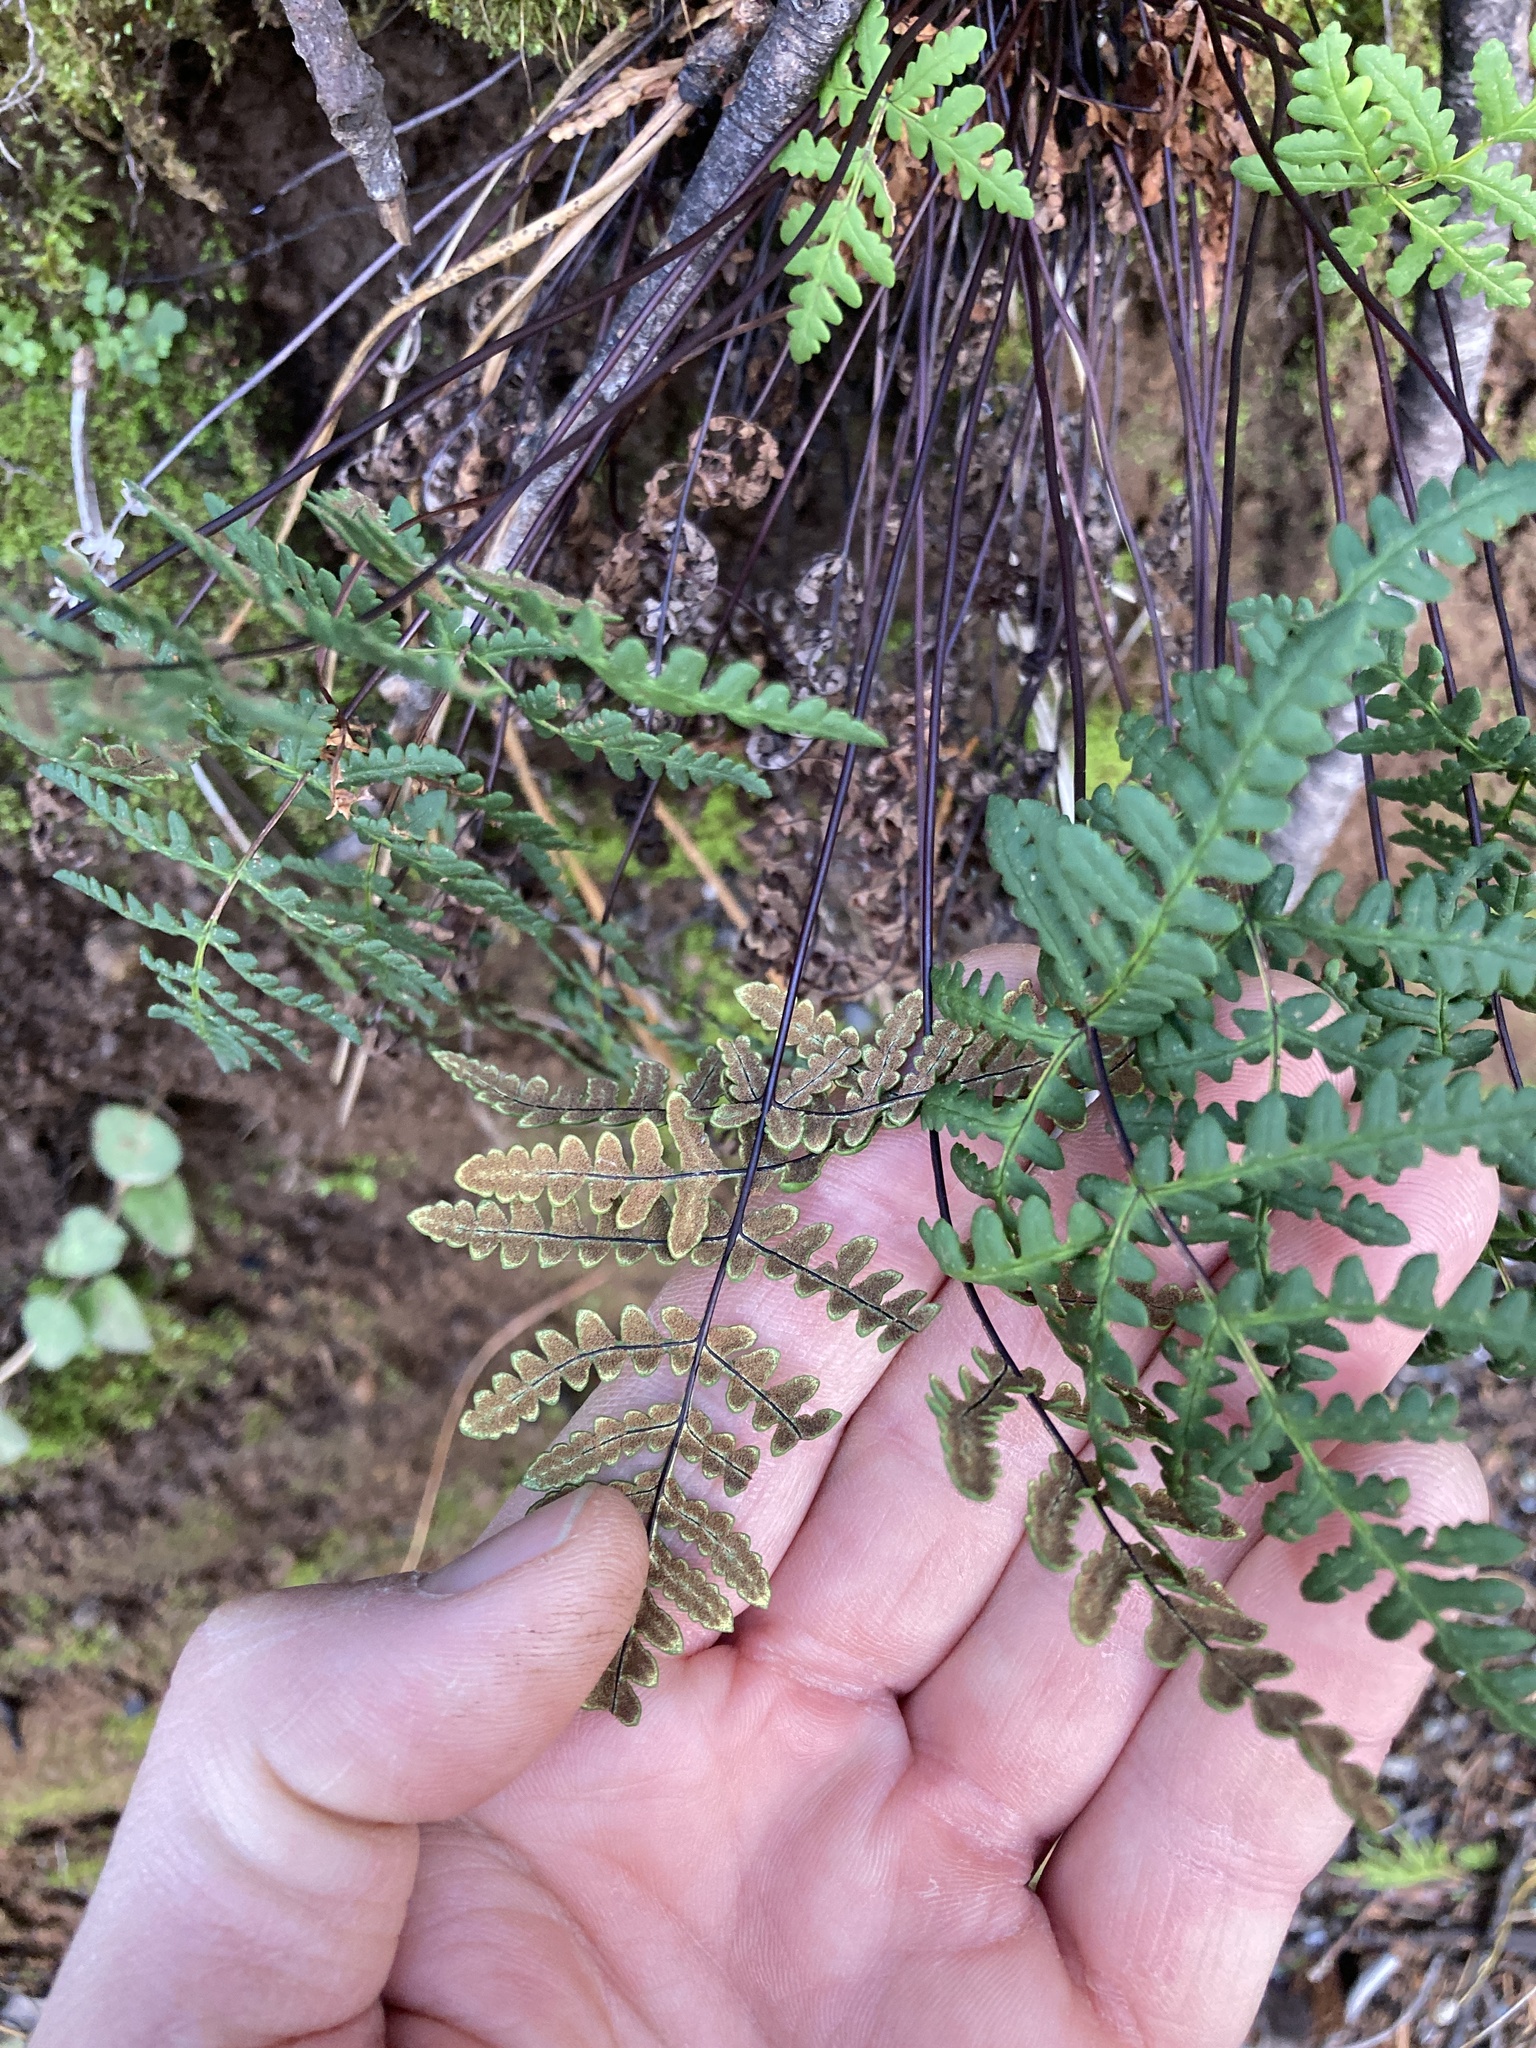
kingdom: Plantae
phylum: Tracheophyta
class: Polypodiopsida
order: Polypodiales
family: Pteridaceae
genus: Pentagramma
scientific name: Pentagramma triangularis
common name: Gold fern
